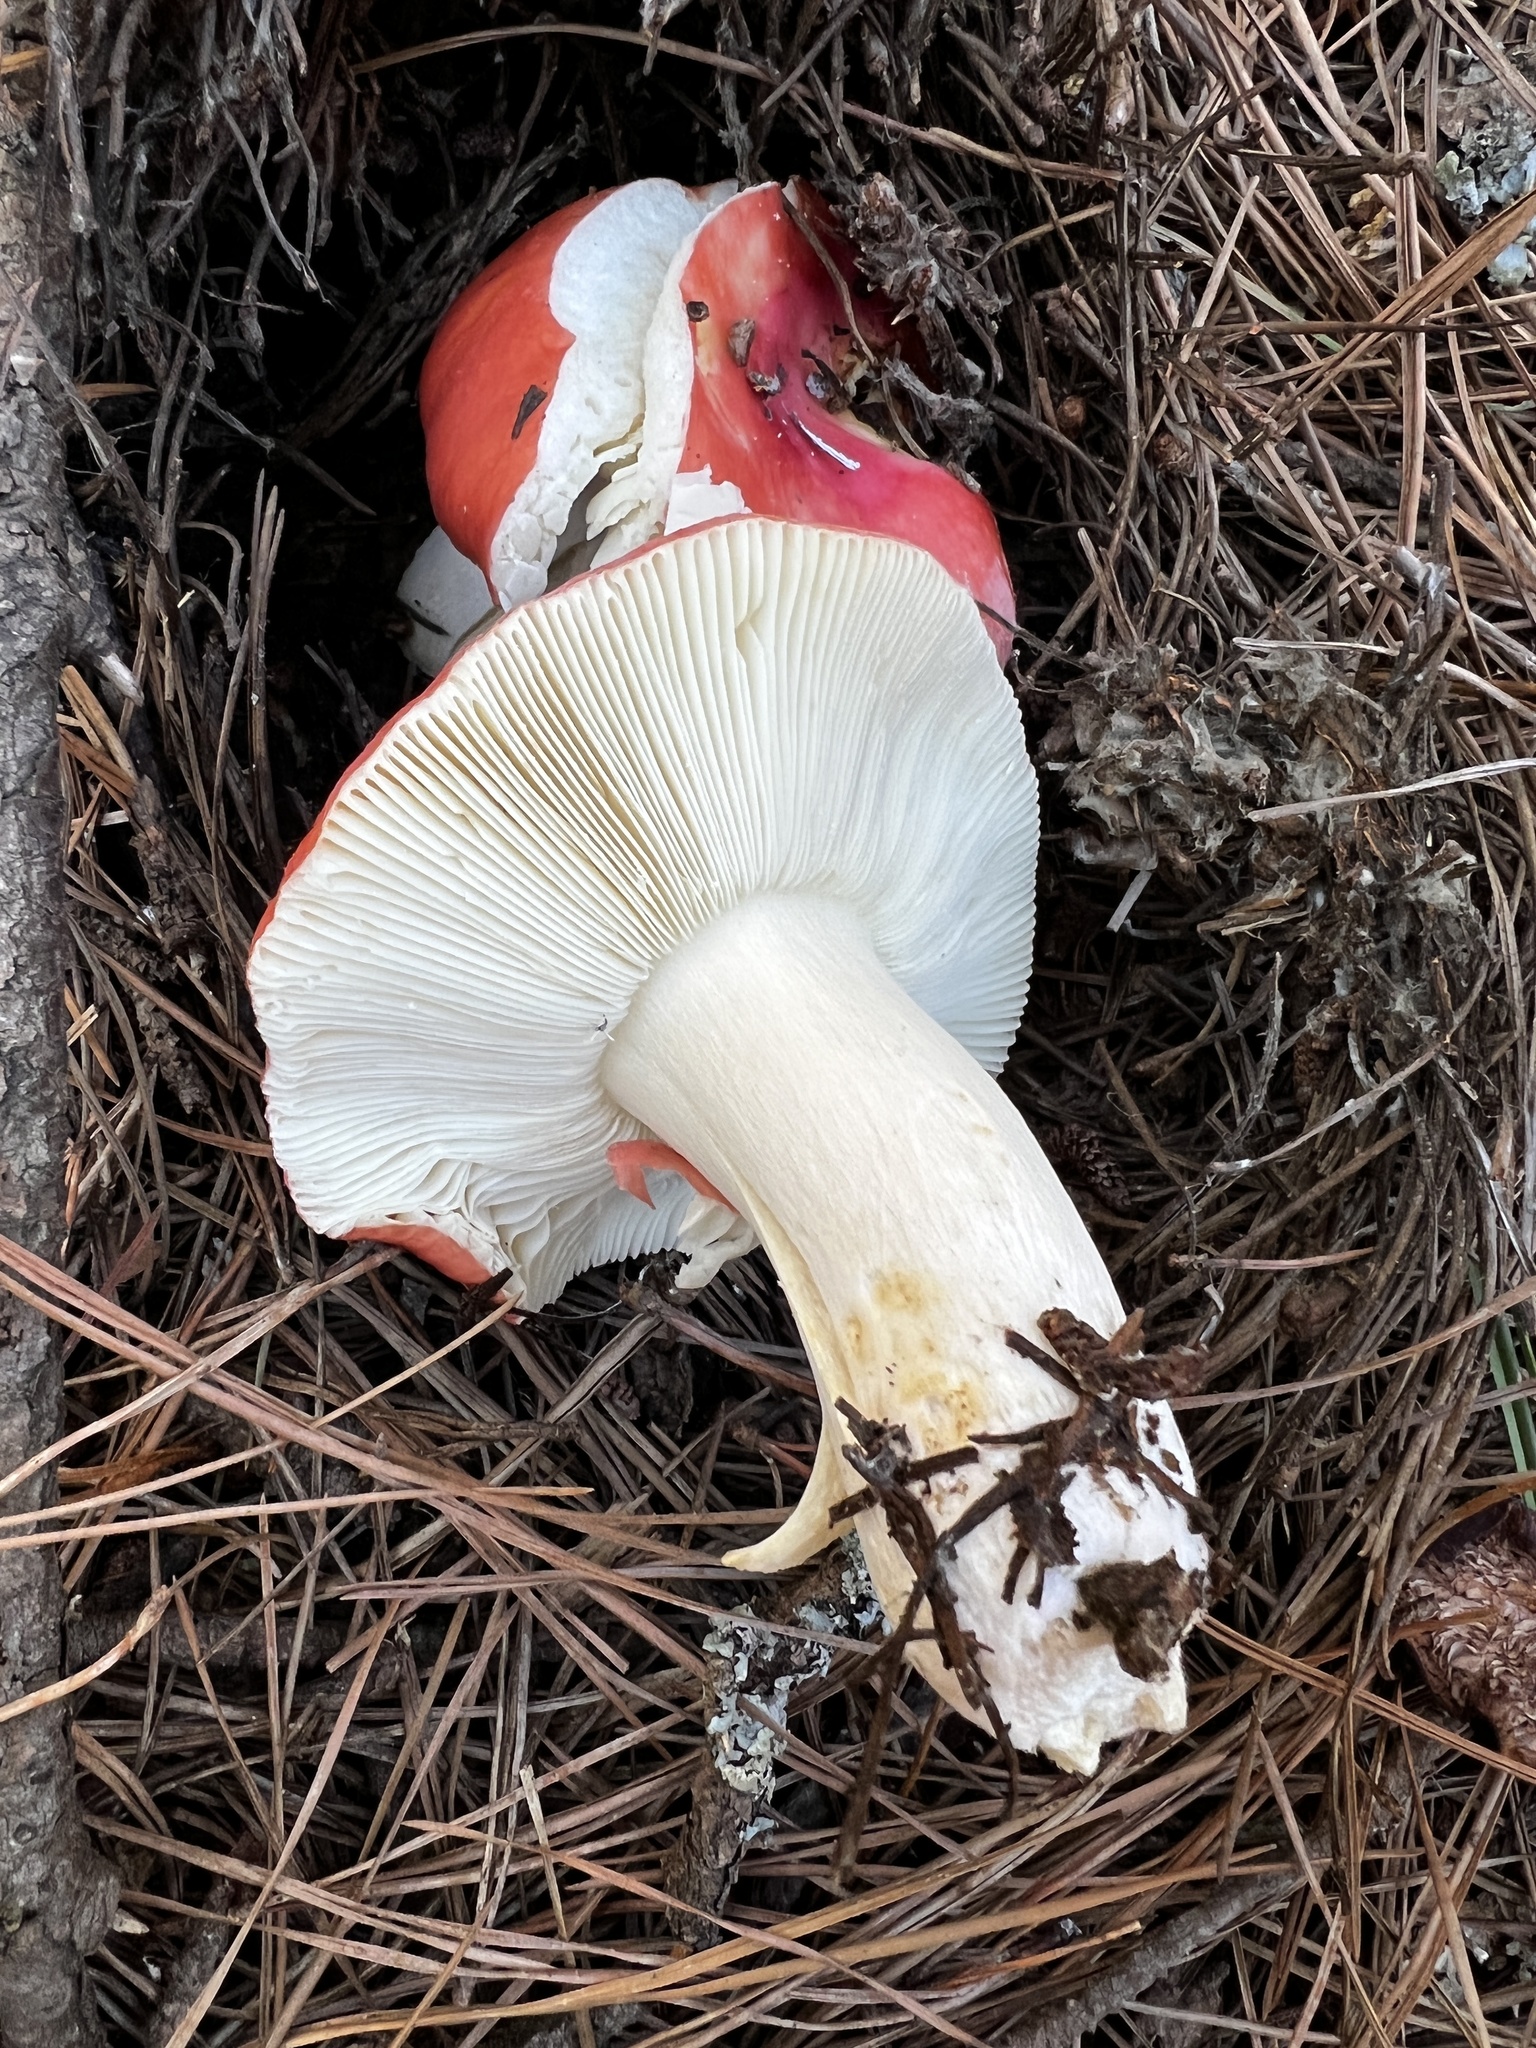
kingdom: Fungi
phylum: Basidiomycota
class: Agaricomycetes
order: Russulales
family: Russulaceae
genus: Russula
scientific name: Russula cremoricolor
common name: Winter russula
